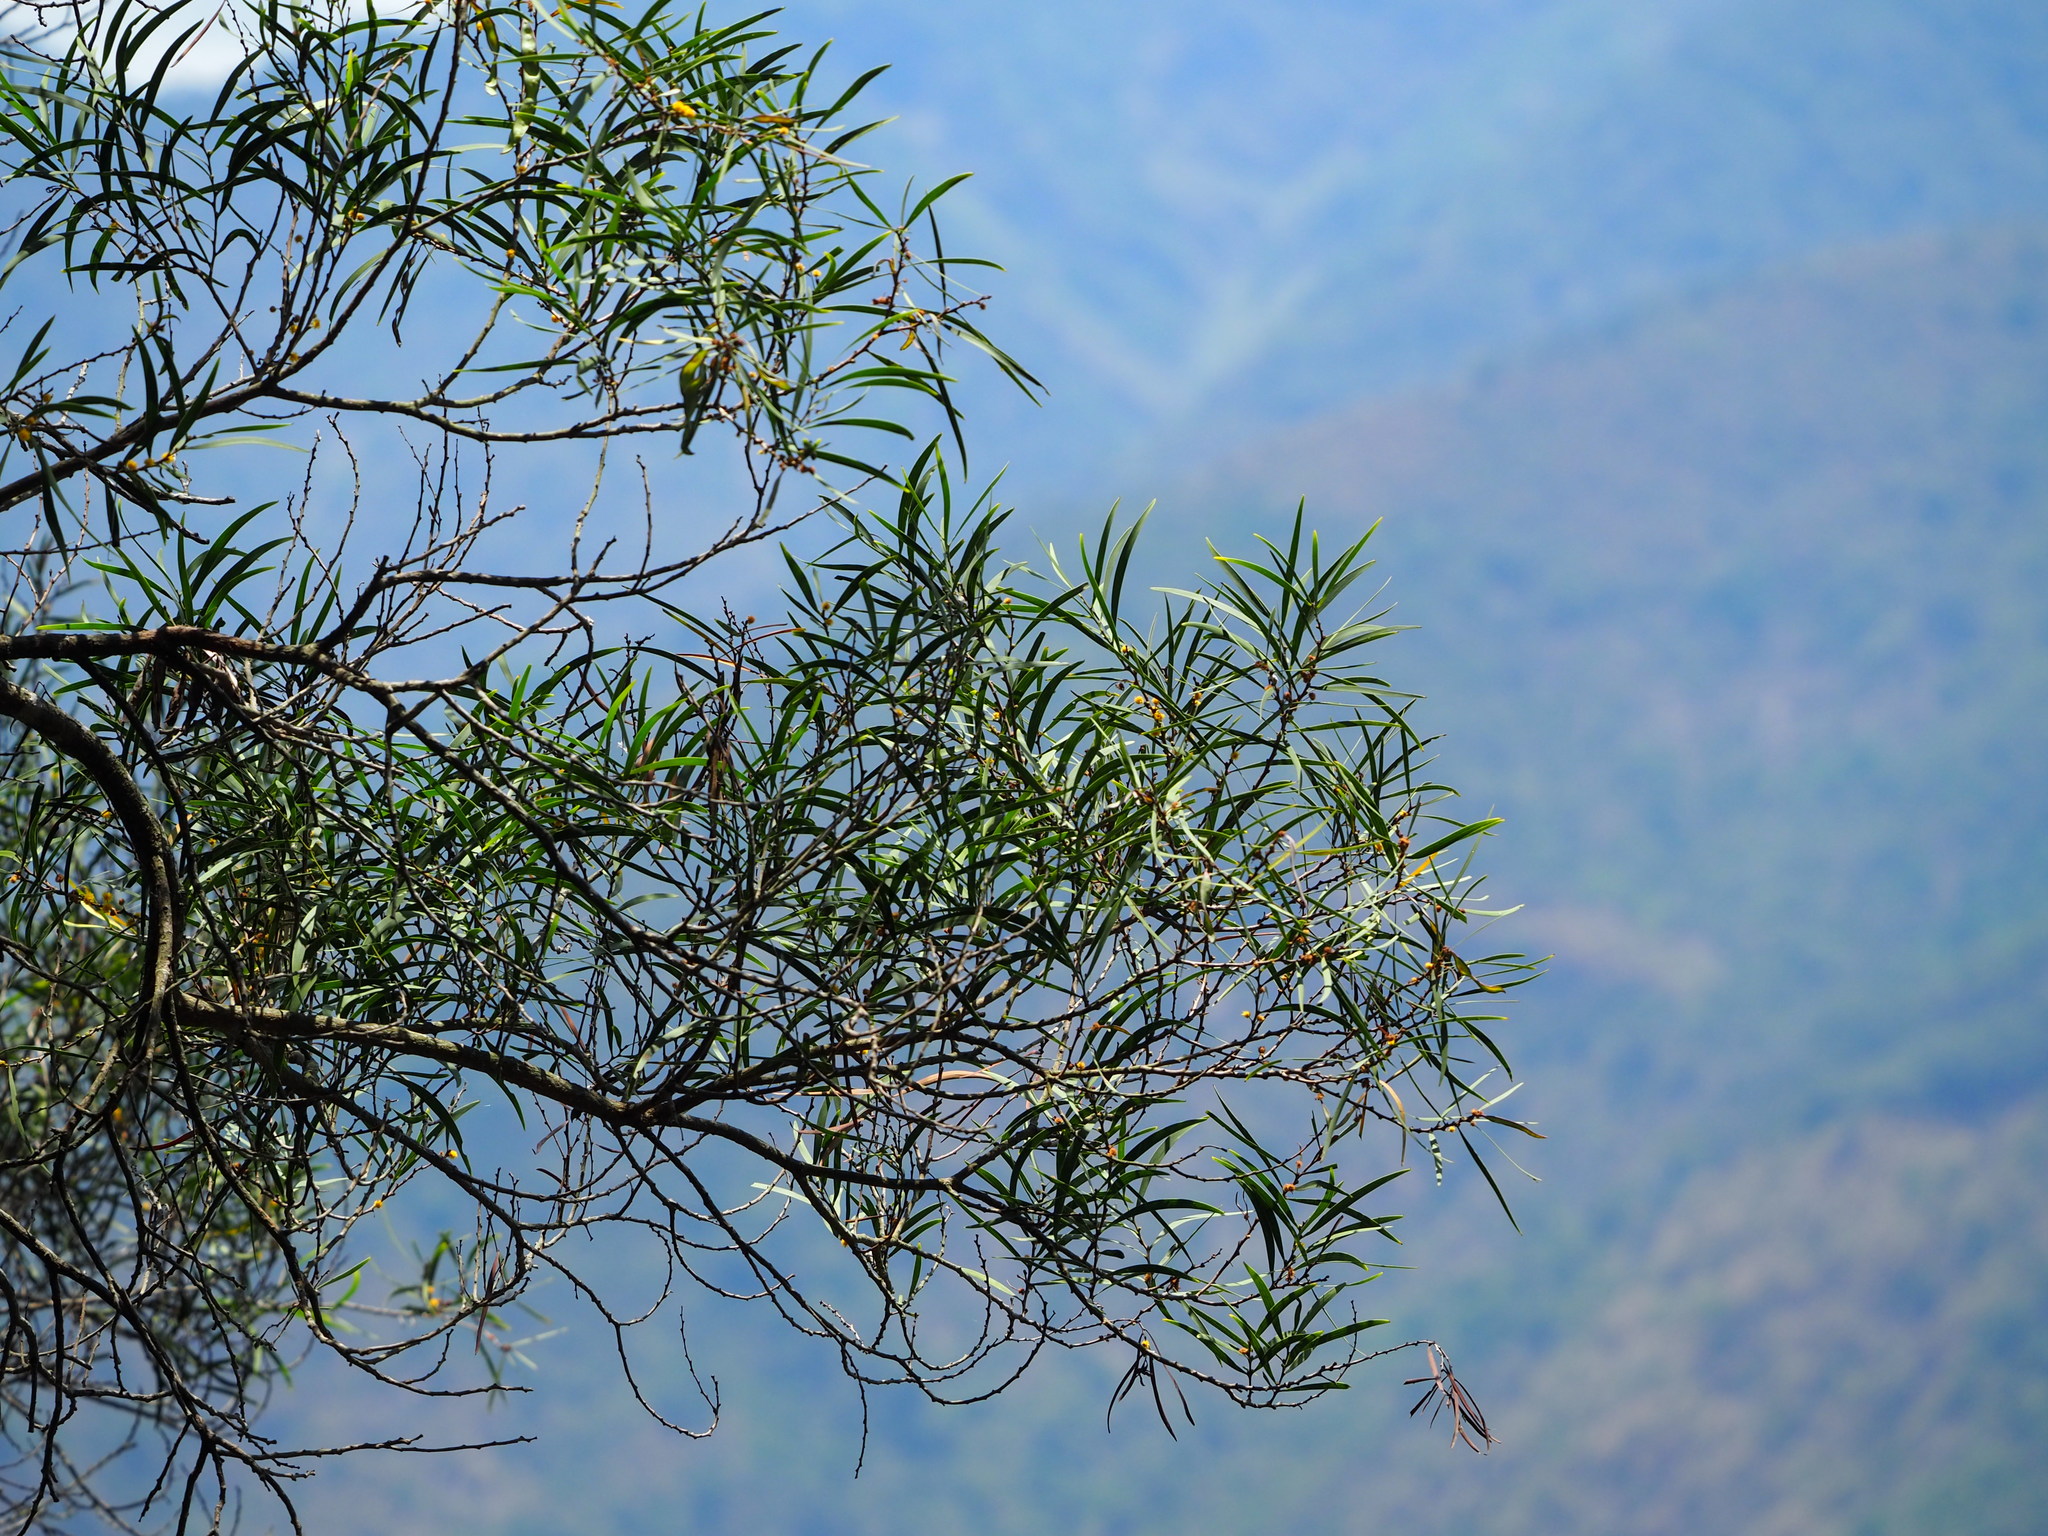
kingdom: Plantae
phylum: Tracheophyta
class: Magnoliopsida
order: Fabales
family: Fabaceae
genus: Acacia
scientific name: Acacia confusa
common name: Formosan koa
